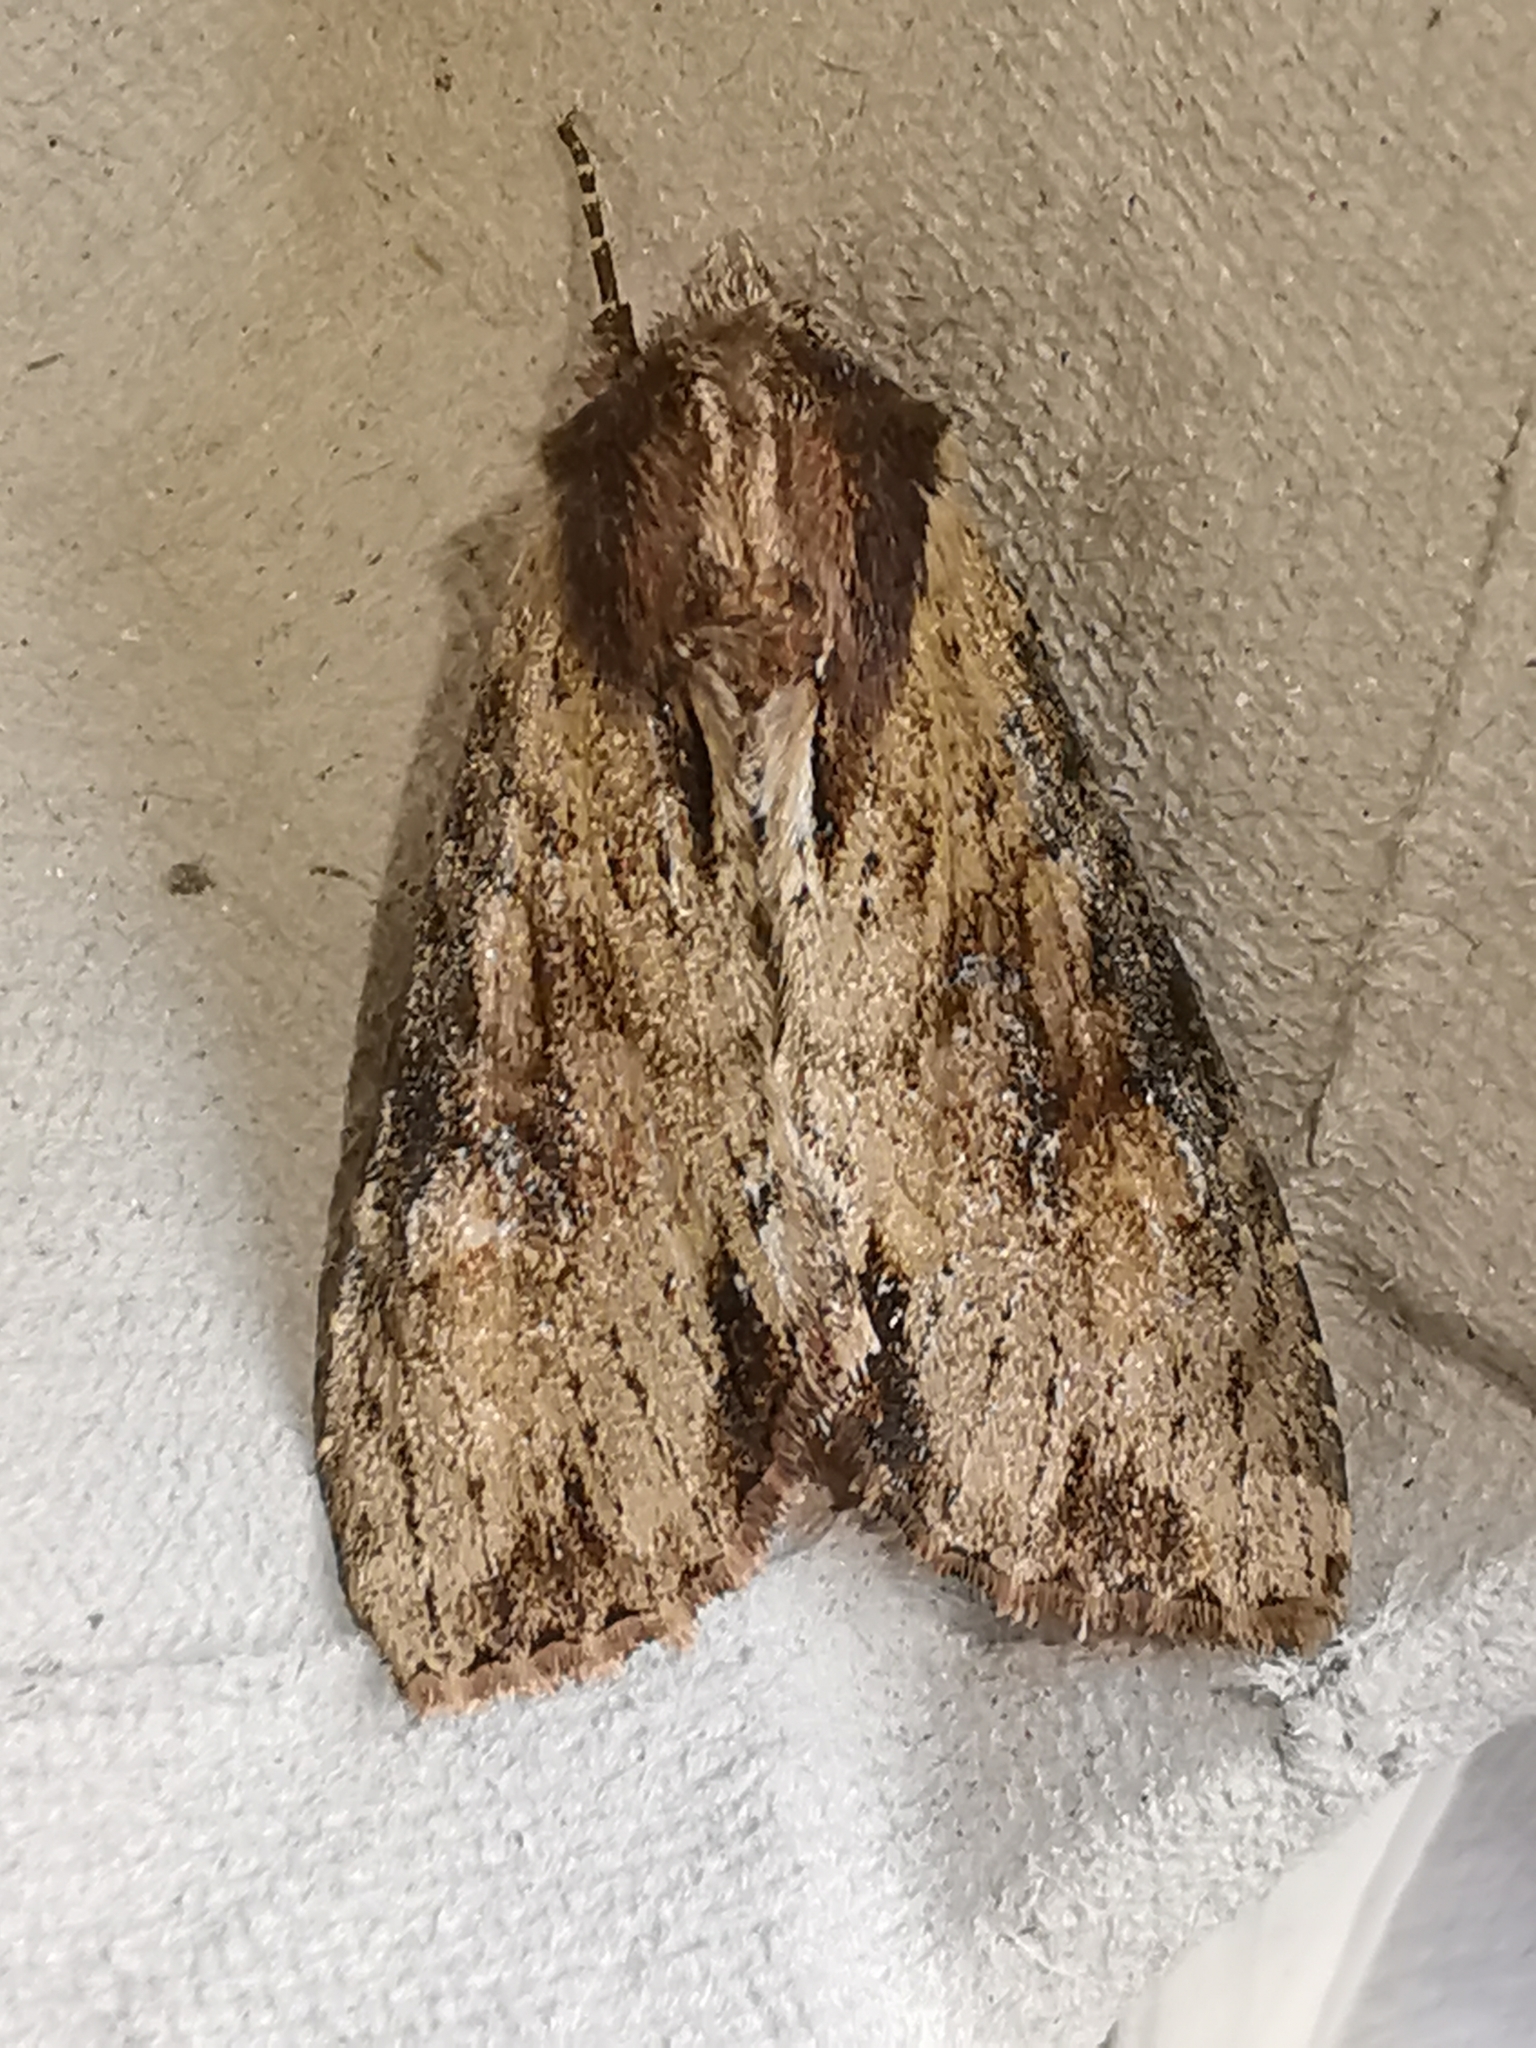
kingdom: Animalia
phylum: Arthropoda
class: Insecta
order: Lepidoptera
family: Noctuidae
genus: Apamea
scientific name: Apamea crenata
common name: Clouded-bordered brindle
